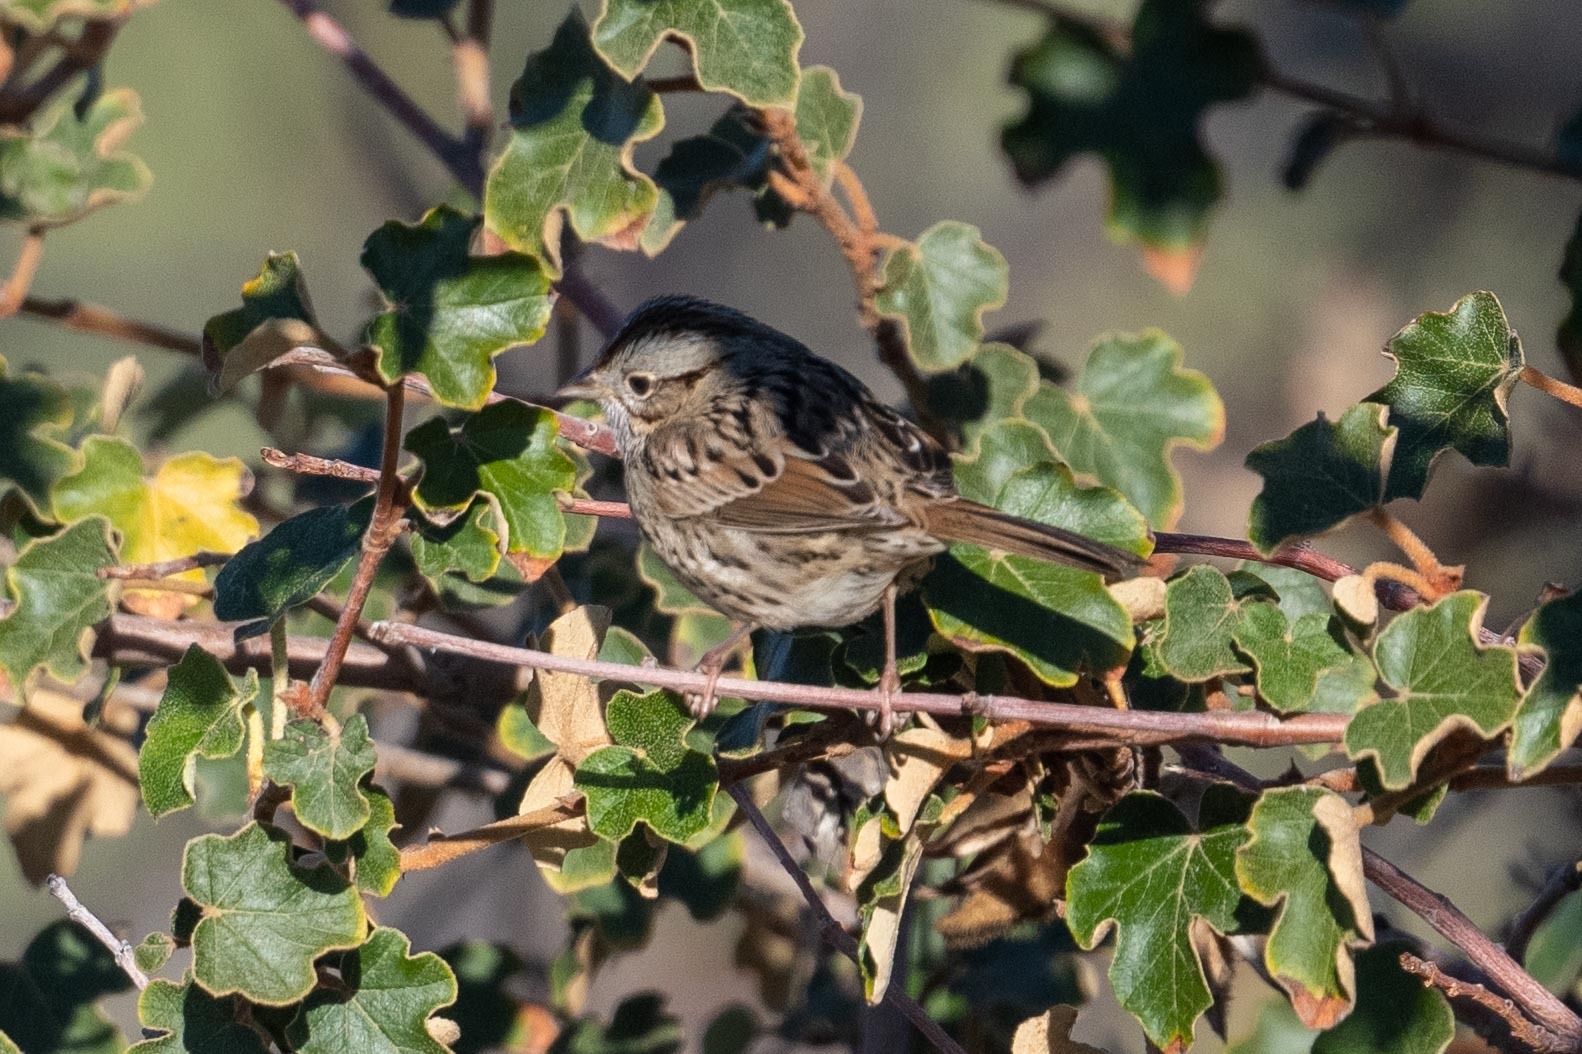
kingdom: Animalia
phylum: Chordata
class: Aves
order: Passeriformes
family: Passerellidae
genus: Melospiza
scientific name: Melospiza lincolnii
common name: Lincoln's sparrow
